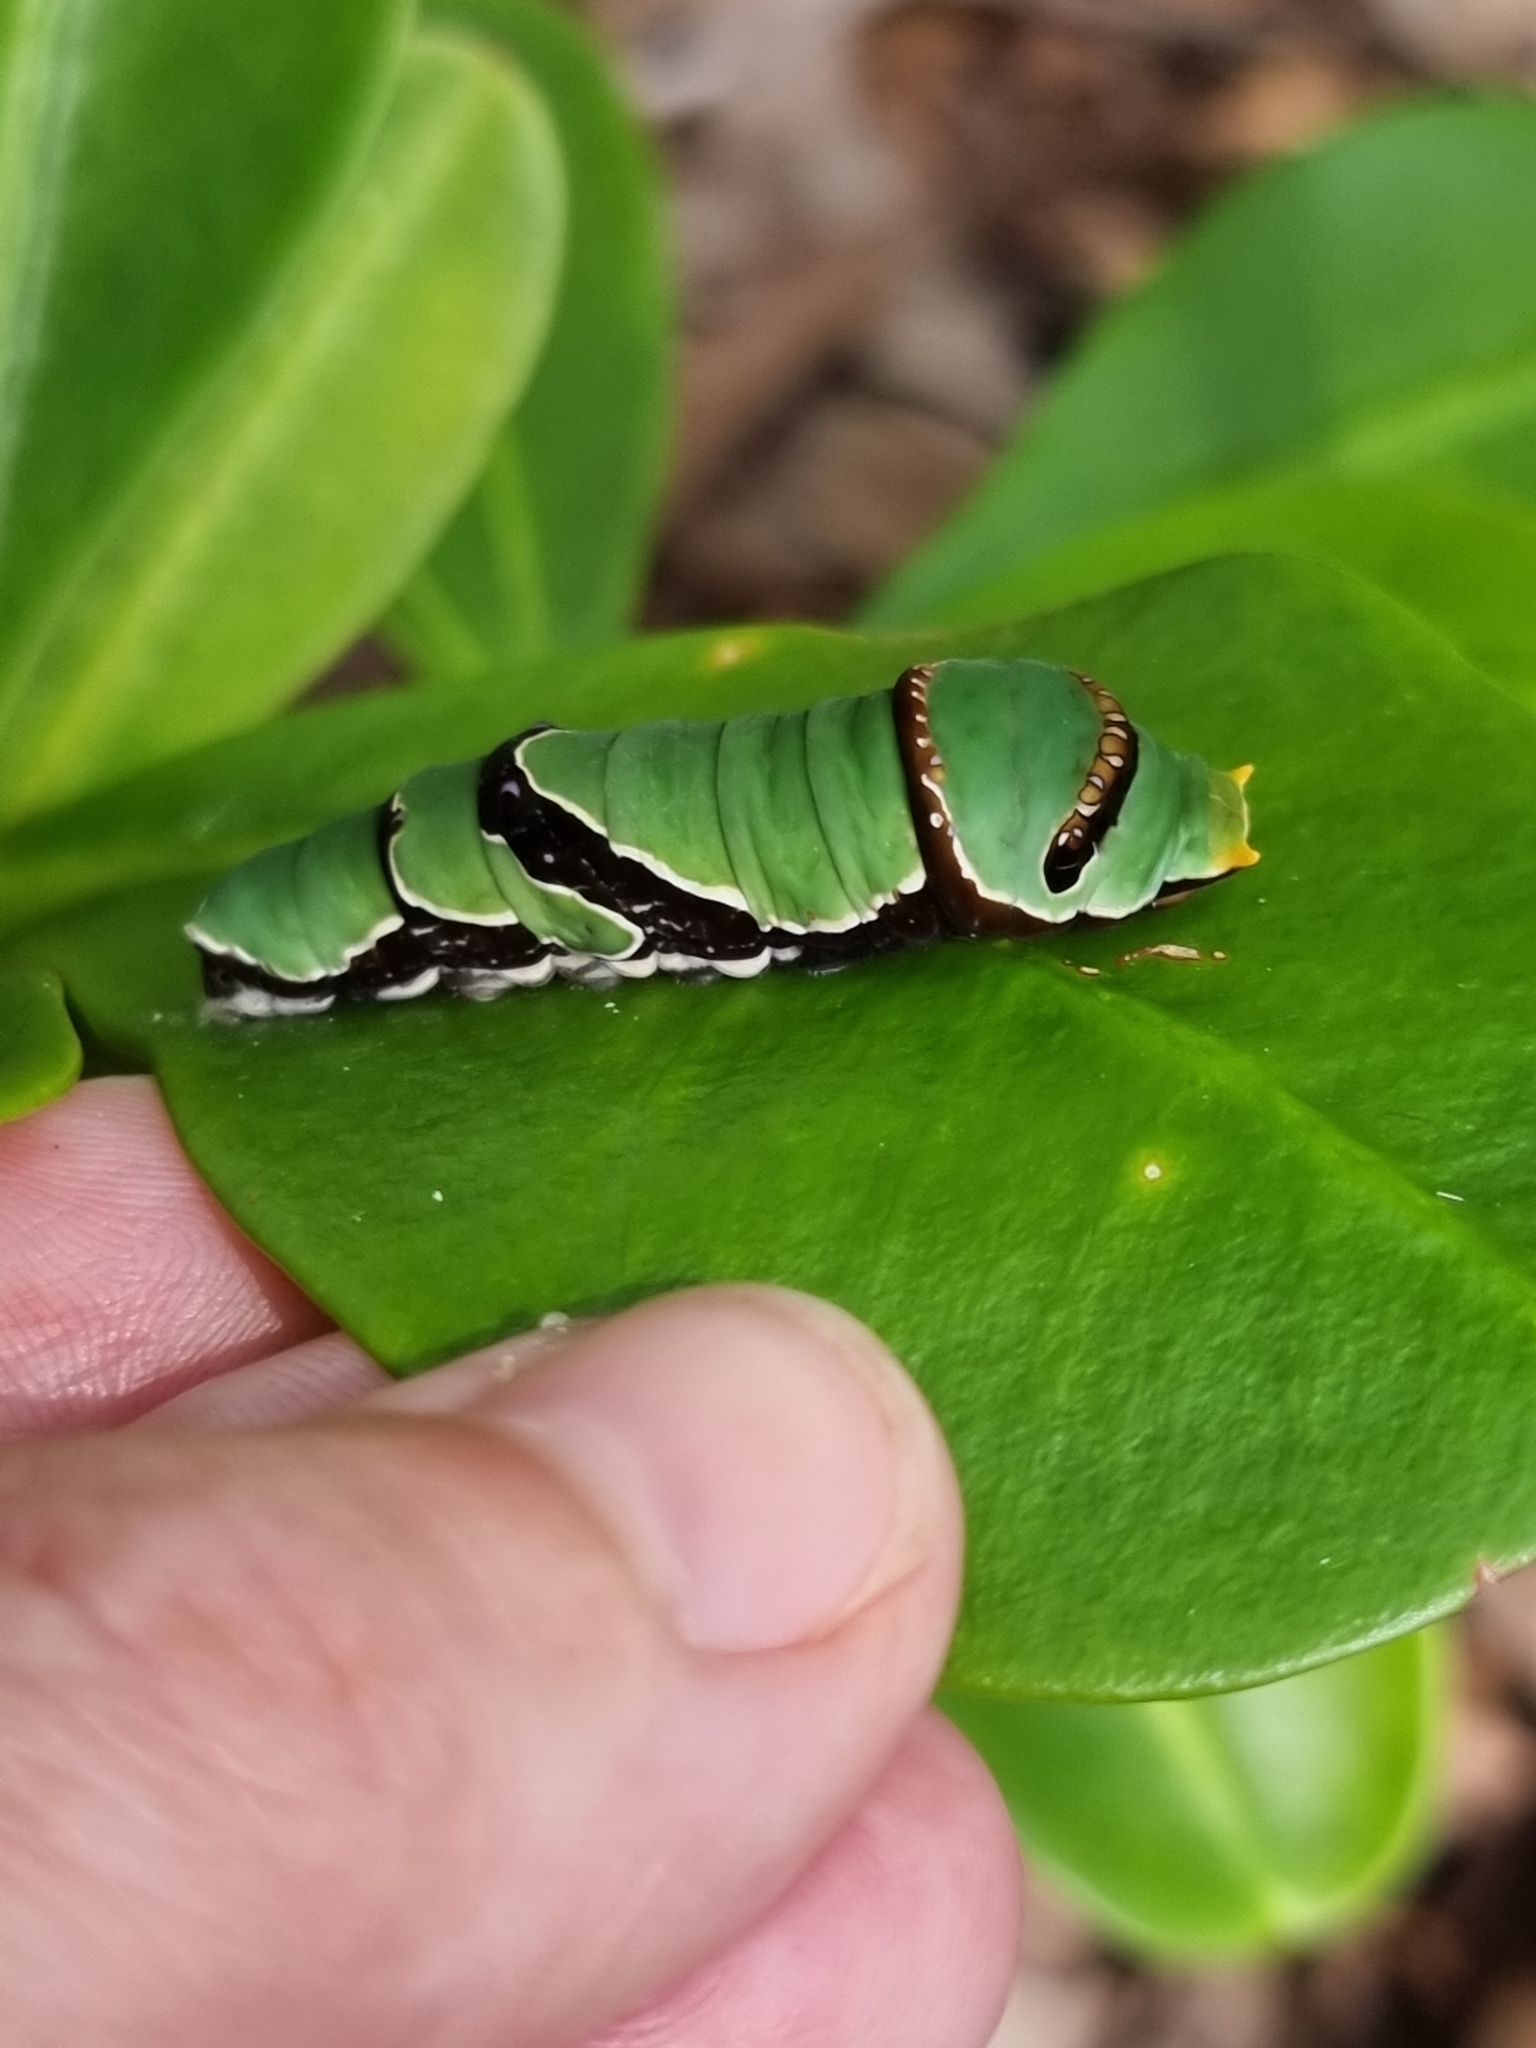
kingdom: Animalia
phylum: Arthropoda
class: Insecta
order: Lepidoptera
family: Papilionidae
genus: Papilio
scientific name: Papilio ambrax
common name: Ambrax butterfly
